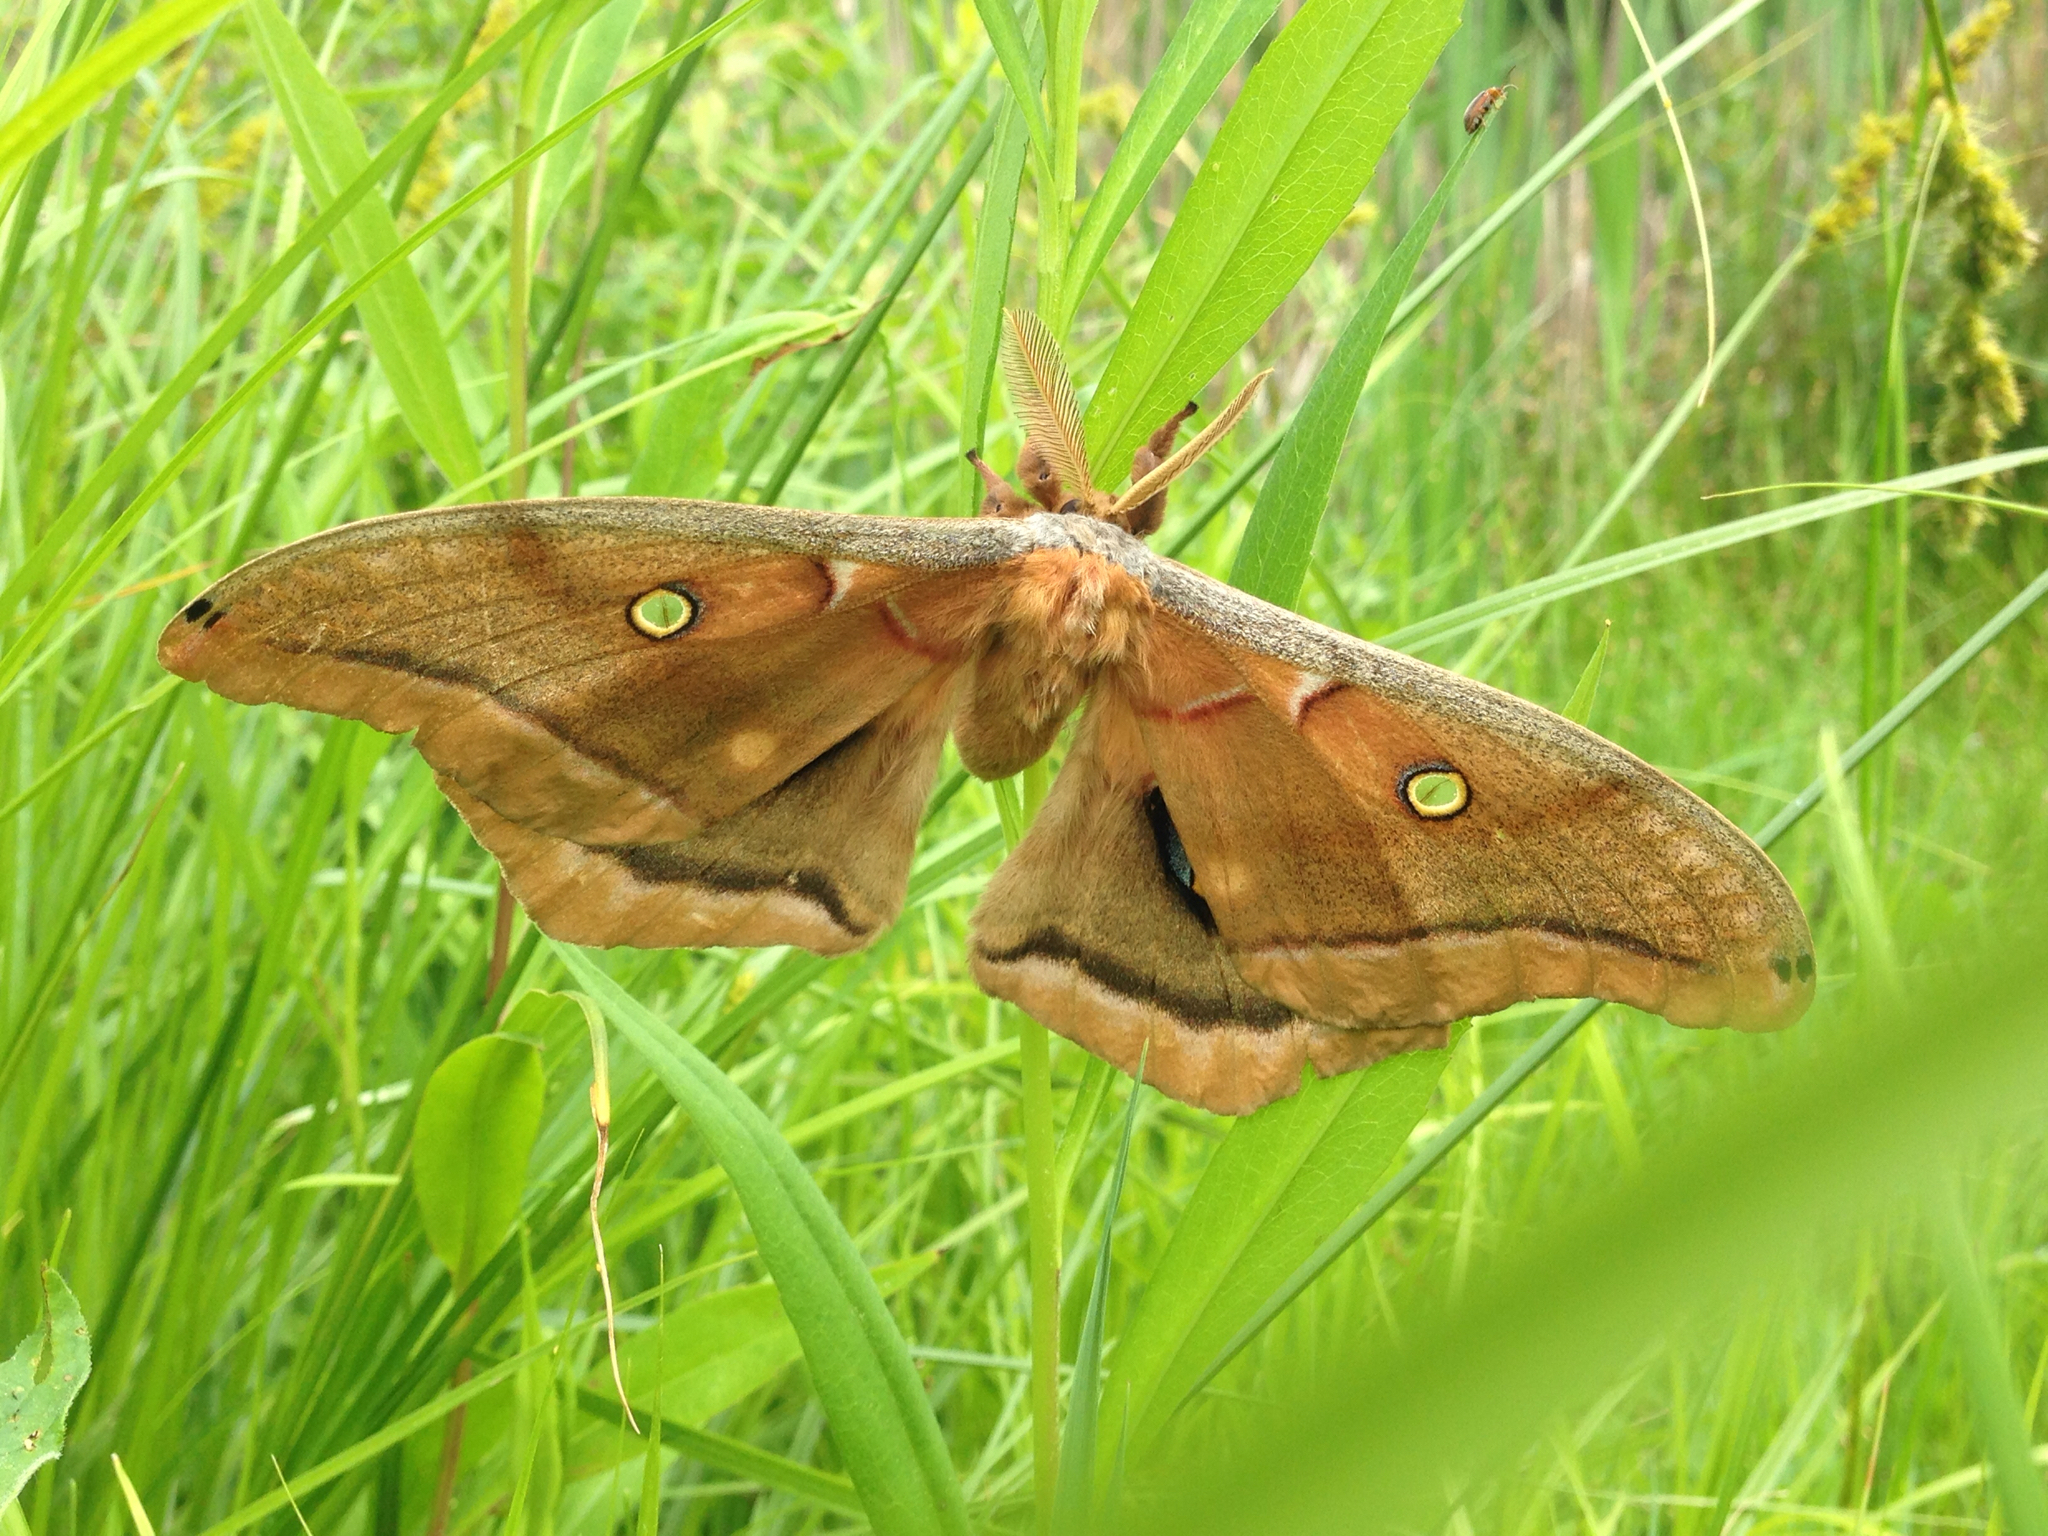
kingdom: Animalia
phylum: Arthropoda
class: Insecta
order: Lepidoptera
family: Saturniidae
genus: Antheraea
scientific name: Antheraea polyphemus
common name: Polyphemus moth
